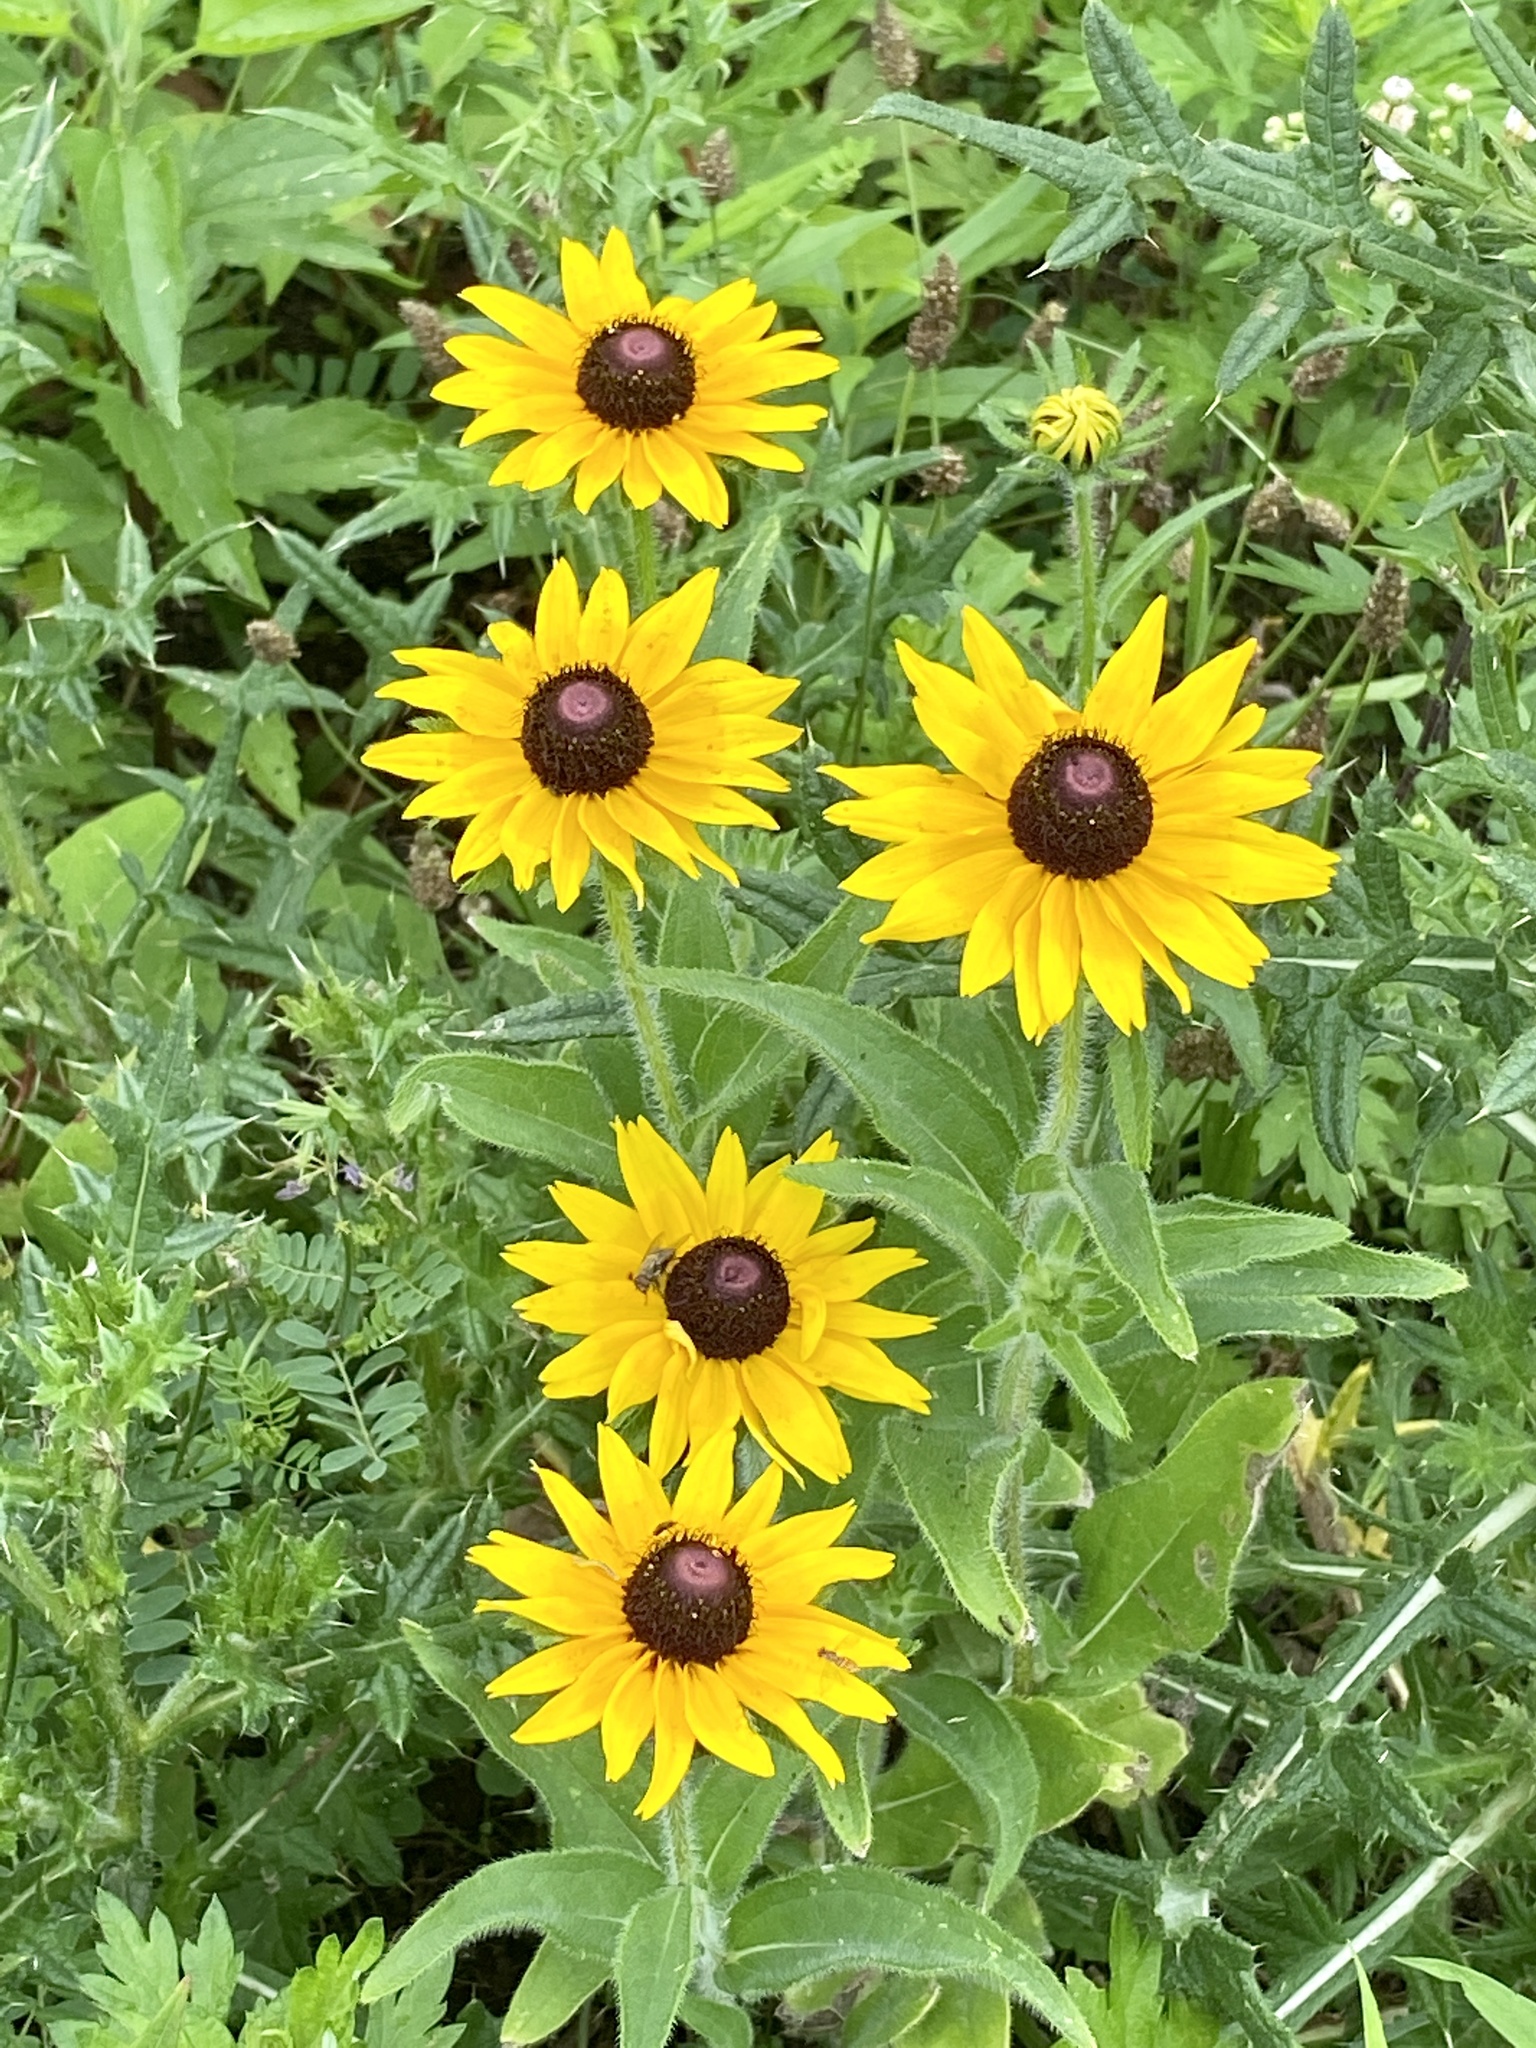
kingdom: Plantae
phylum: Tracheophyta
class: Magnoliopsida
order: Asterales
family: Asteraceae
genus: Rudbeckia
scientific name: Rudbeckia hirta
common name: Black-eyed-susan
